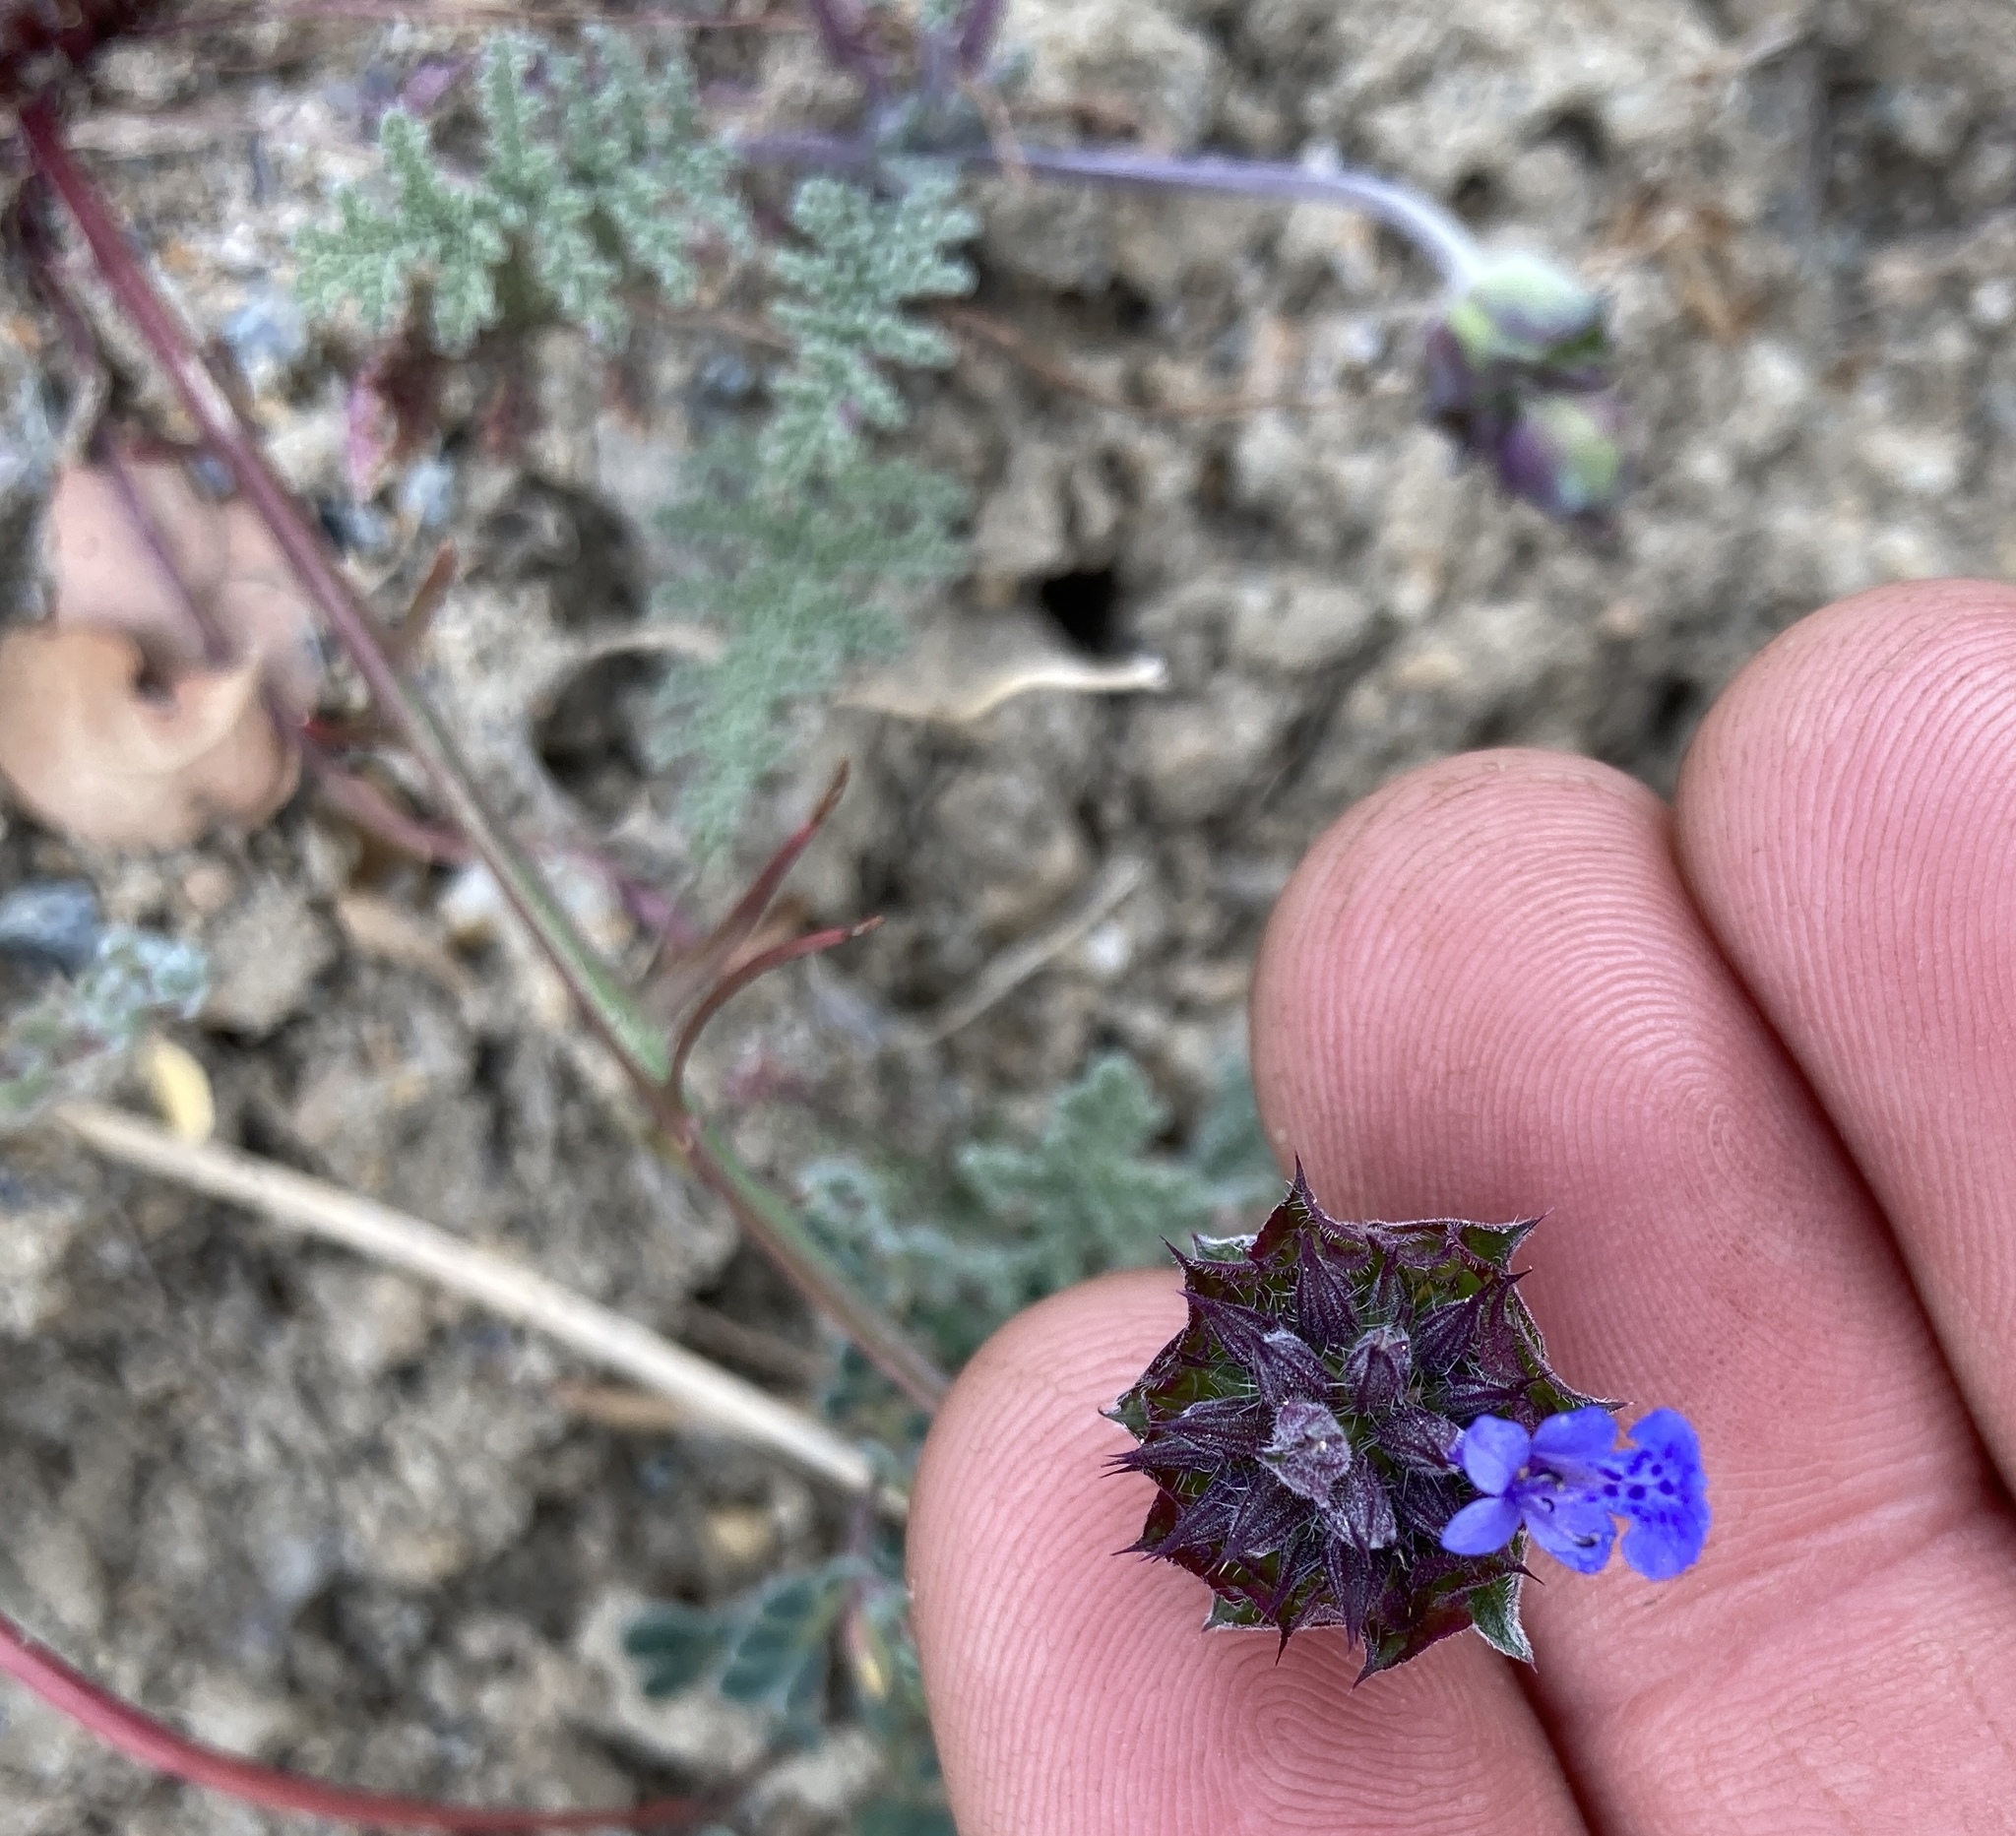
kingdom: Plantae
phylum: Tracheophyta
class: Magnoliopsida
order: Lamiales
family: Lamiaceae
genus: Salvia
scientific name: Salvia columbariae
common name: Chia
